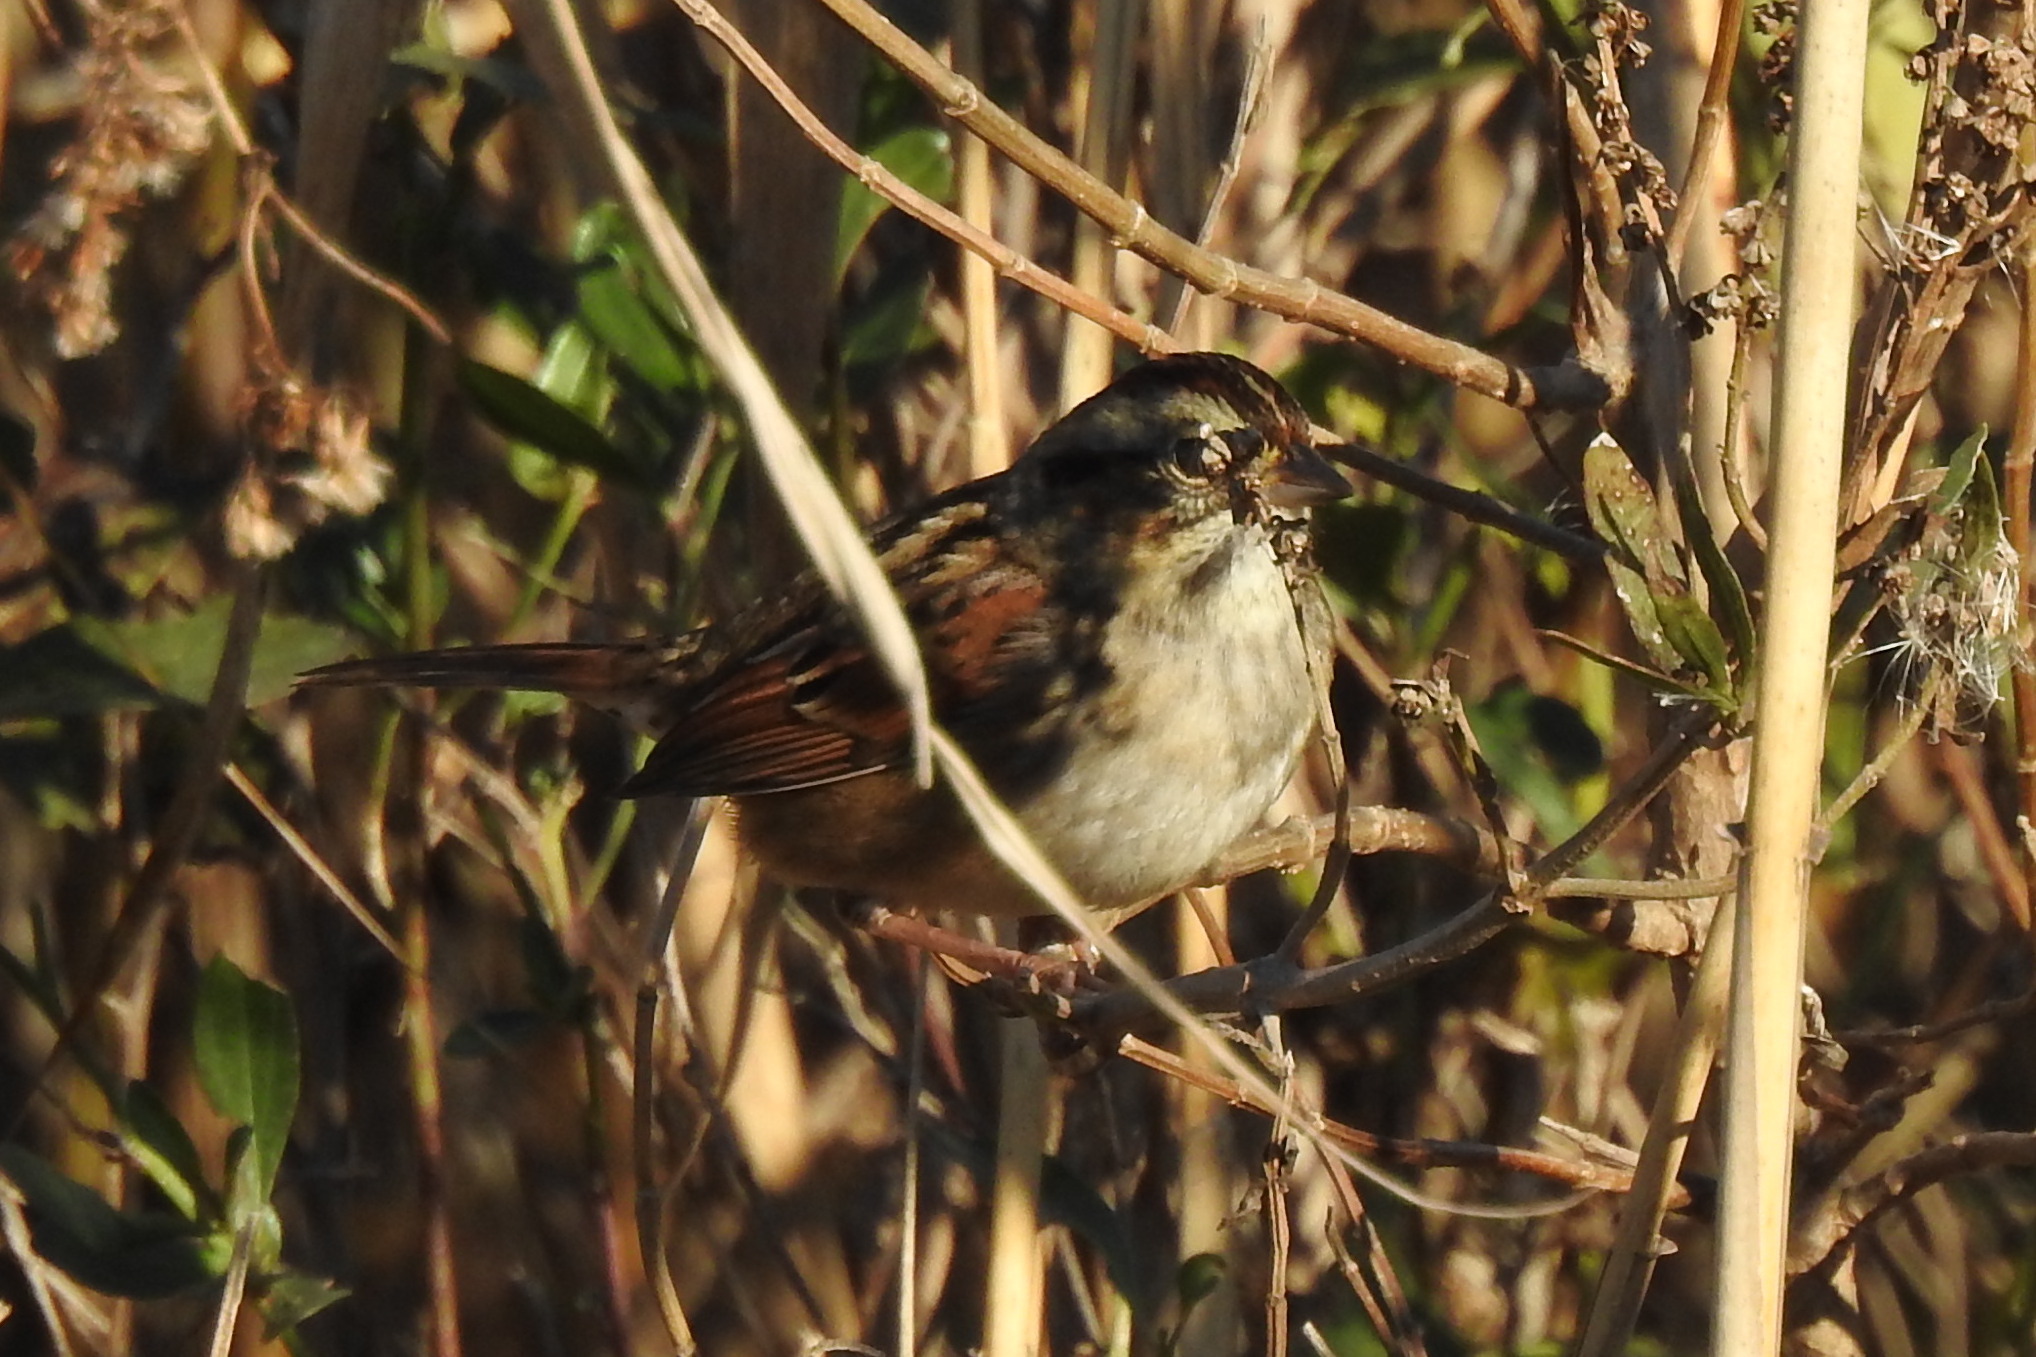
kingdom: Animalia
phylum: Chordata
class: Aves
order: Passeriformes
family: Passerellidae
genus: Melospiza
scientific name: Melospiza georgiana
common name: Swamp sparrow
